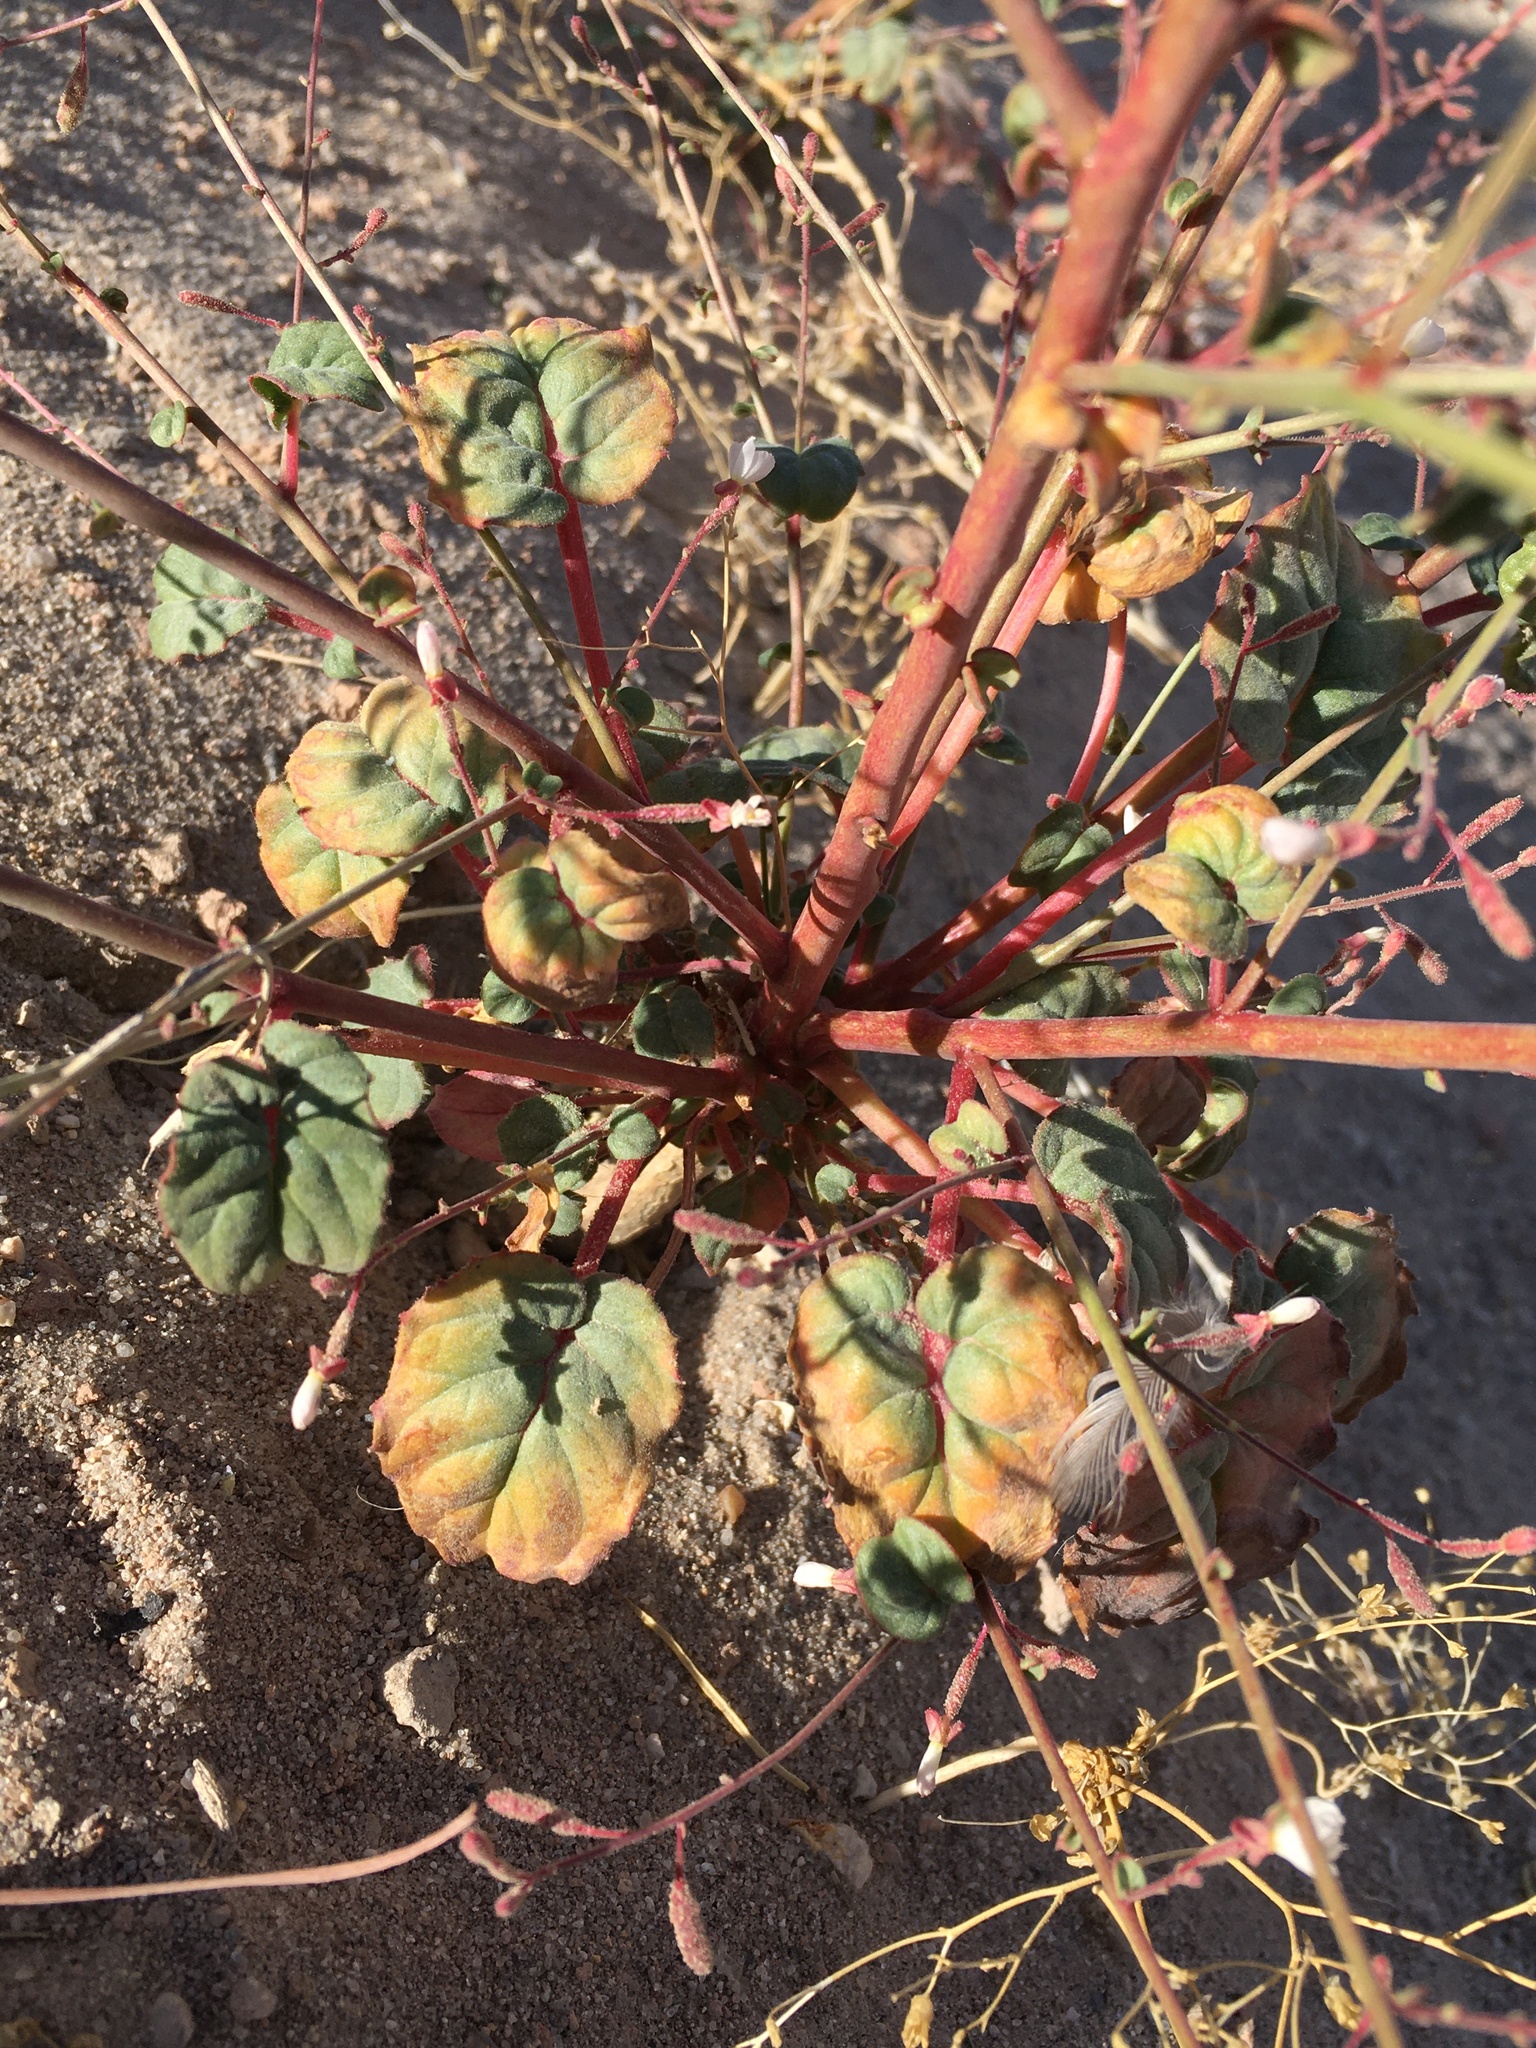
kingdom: Plantae
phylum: Tracheophyta
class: Magnoliopsida
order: Myrtales
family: Onagraceae
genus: Chylismia
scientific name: Chylismia heterochroma
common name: Shockley's evening primrose
